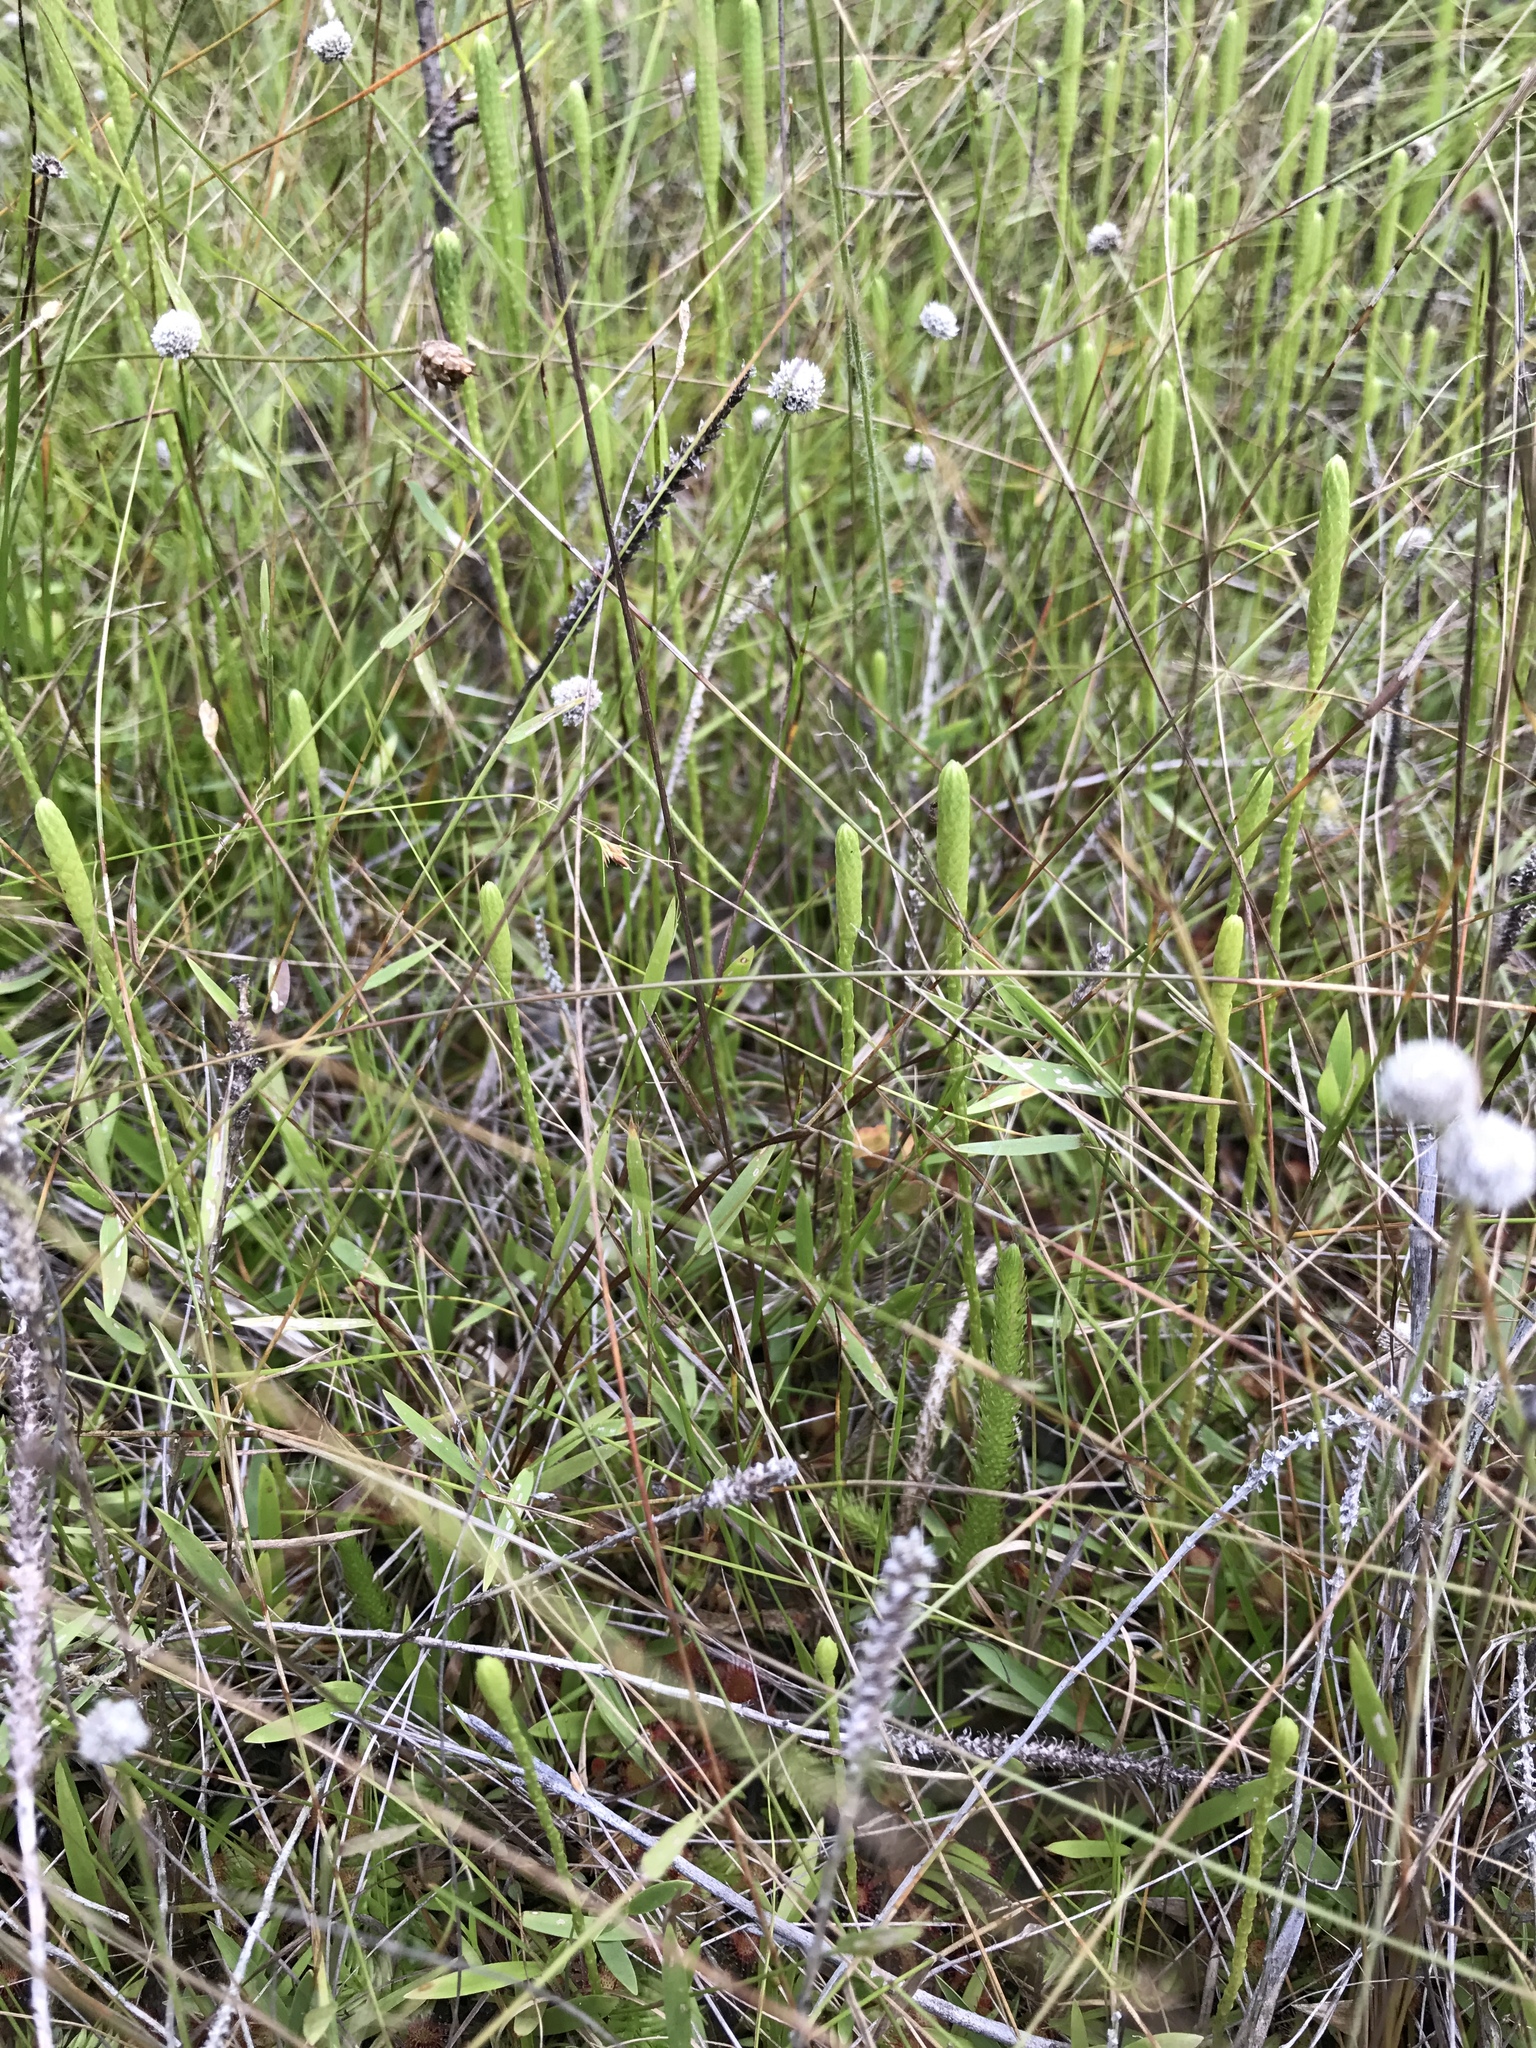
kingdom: Plantae
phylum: Tracheophyta
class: Lycopodiopsida
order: Lycopodiales
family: Lycopodiaceae
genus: Pseudolycopodiella
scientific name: Pseudolycopodiella caroliniana
